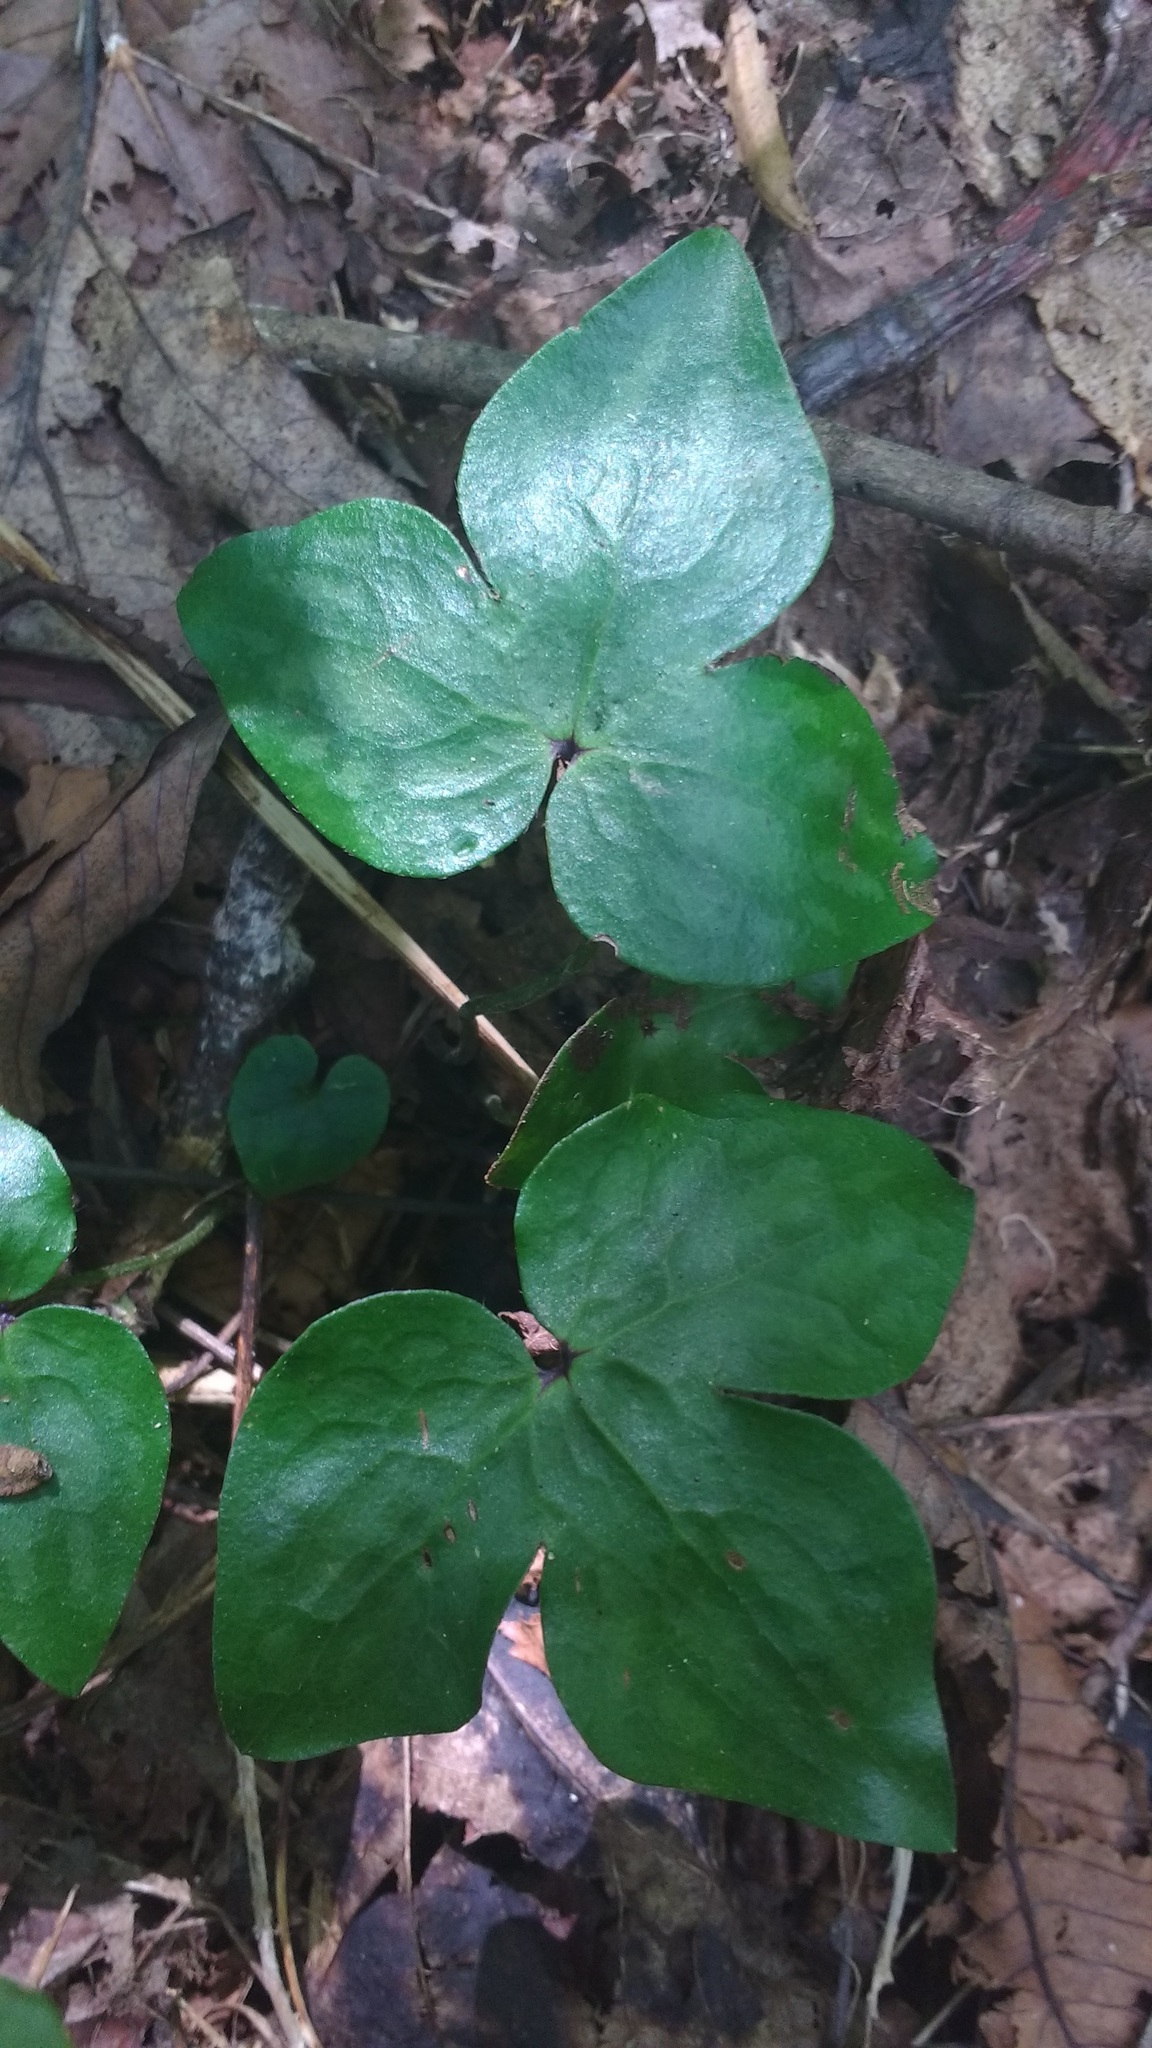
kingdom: Plantae
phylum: Tracheophyta
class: Magnoliopsida
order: Ranunculales
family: Ranunculaceae
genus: Hepatica
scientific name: Hepatica acutiloba
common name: Sharp-lobed hepatica
